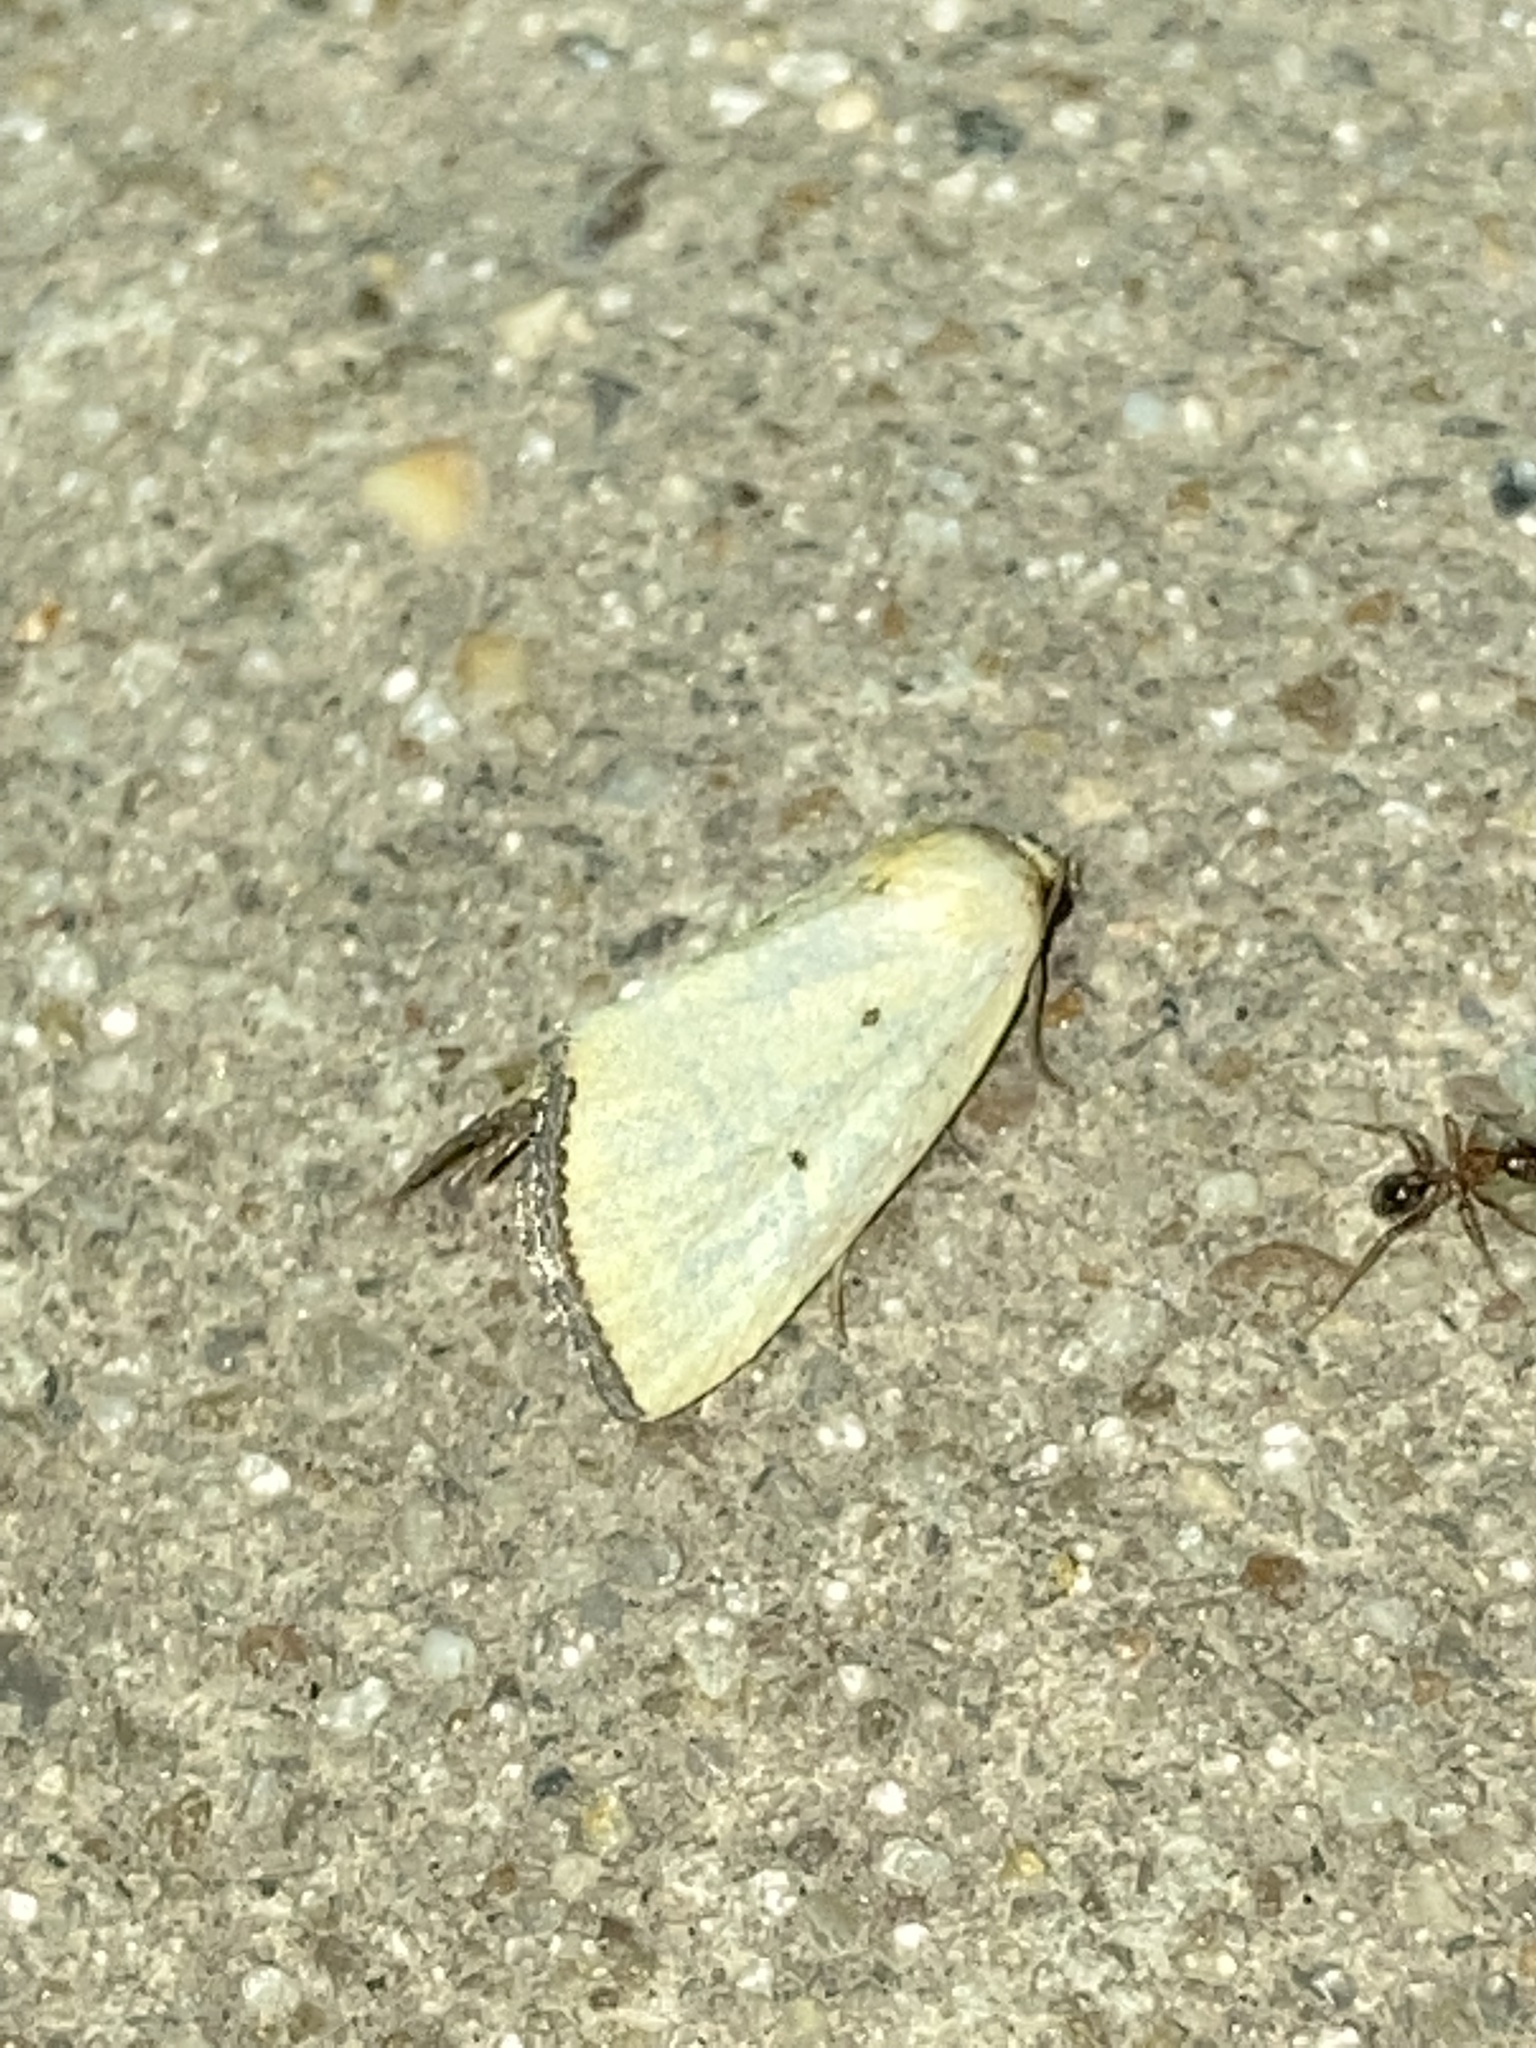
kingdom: Animalia
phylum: Arthropoda
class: Insecta
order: Lepidoptera
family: Noctuidae
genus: Marimatha
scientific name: Marimatha nigrofimbria
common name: Black-bordered lemon moth
